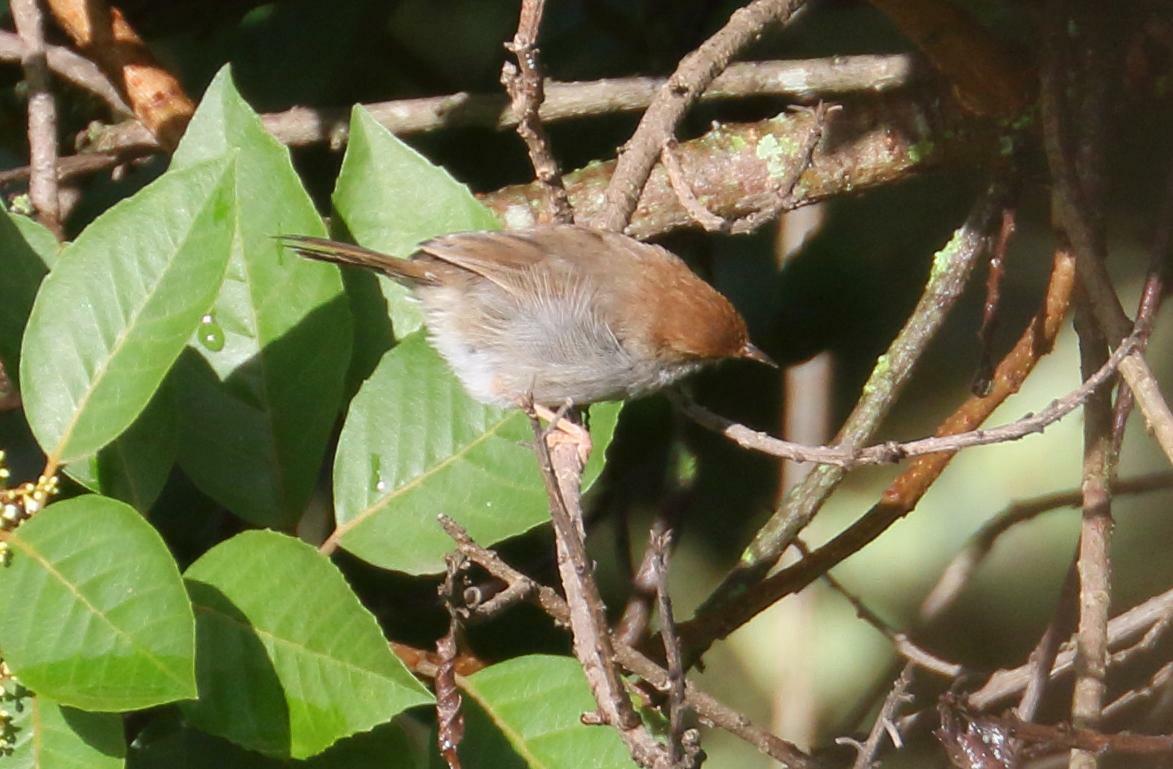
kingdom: Animalia
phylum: Chordata
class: Aves
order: Passeriformes
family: Cisticolidae
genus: Cisticola
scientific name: Cisticola fulvicapilla
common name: Neddicky
